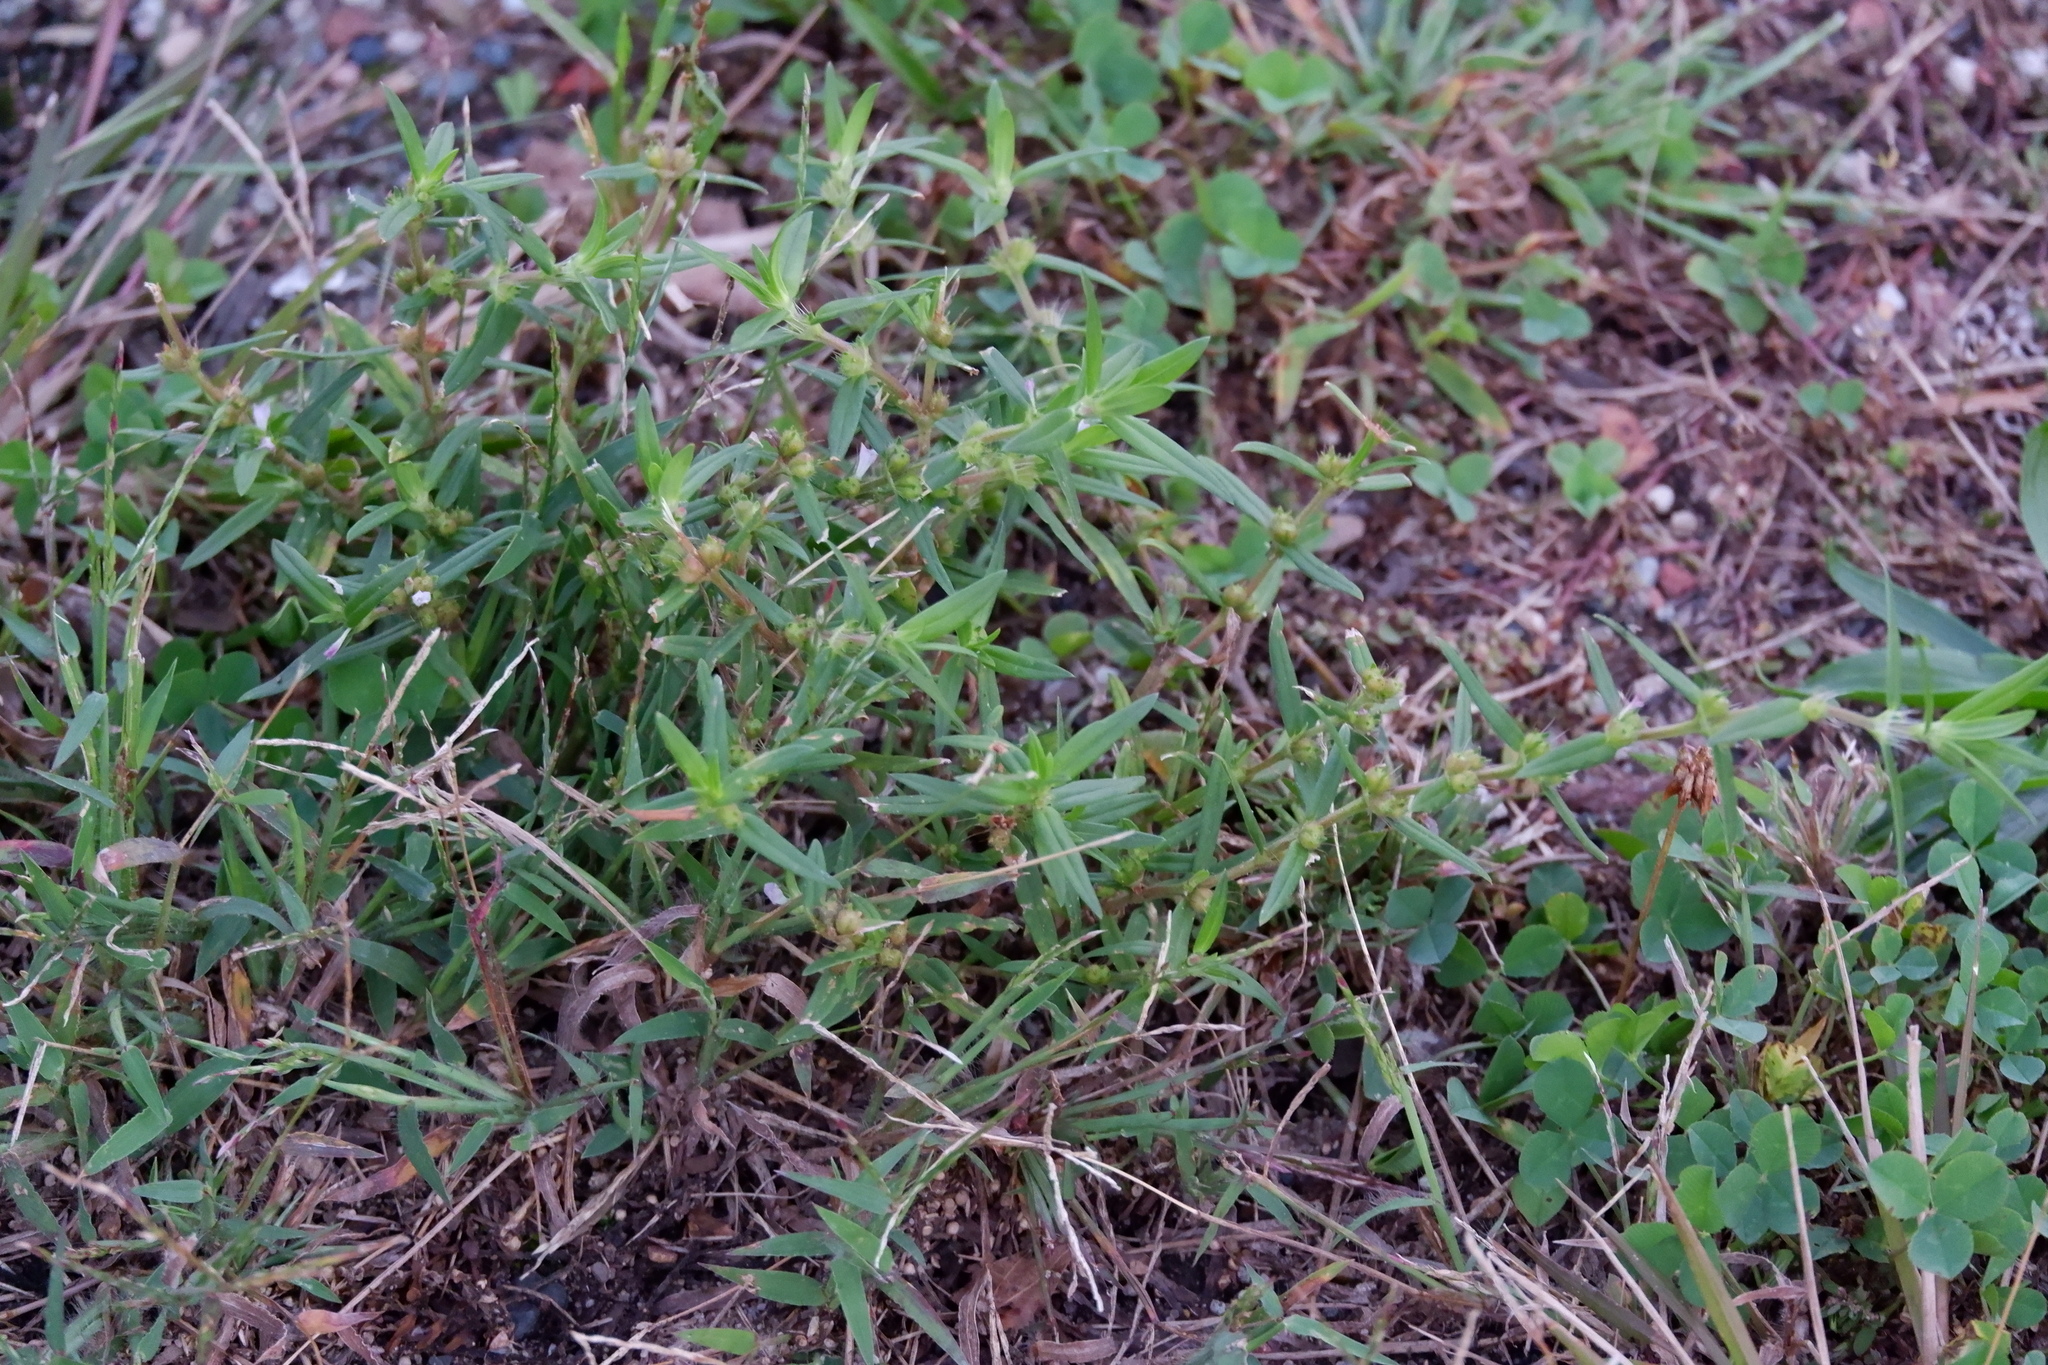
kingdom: Plantae
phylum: Tracheophyta
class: Magnoliopsida
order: Gentianales
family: Rubiaceae
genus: Hexasepalum
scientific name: Hexasepalum teres
